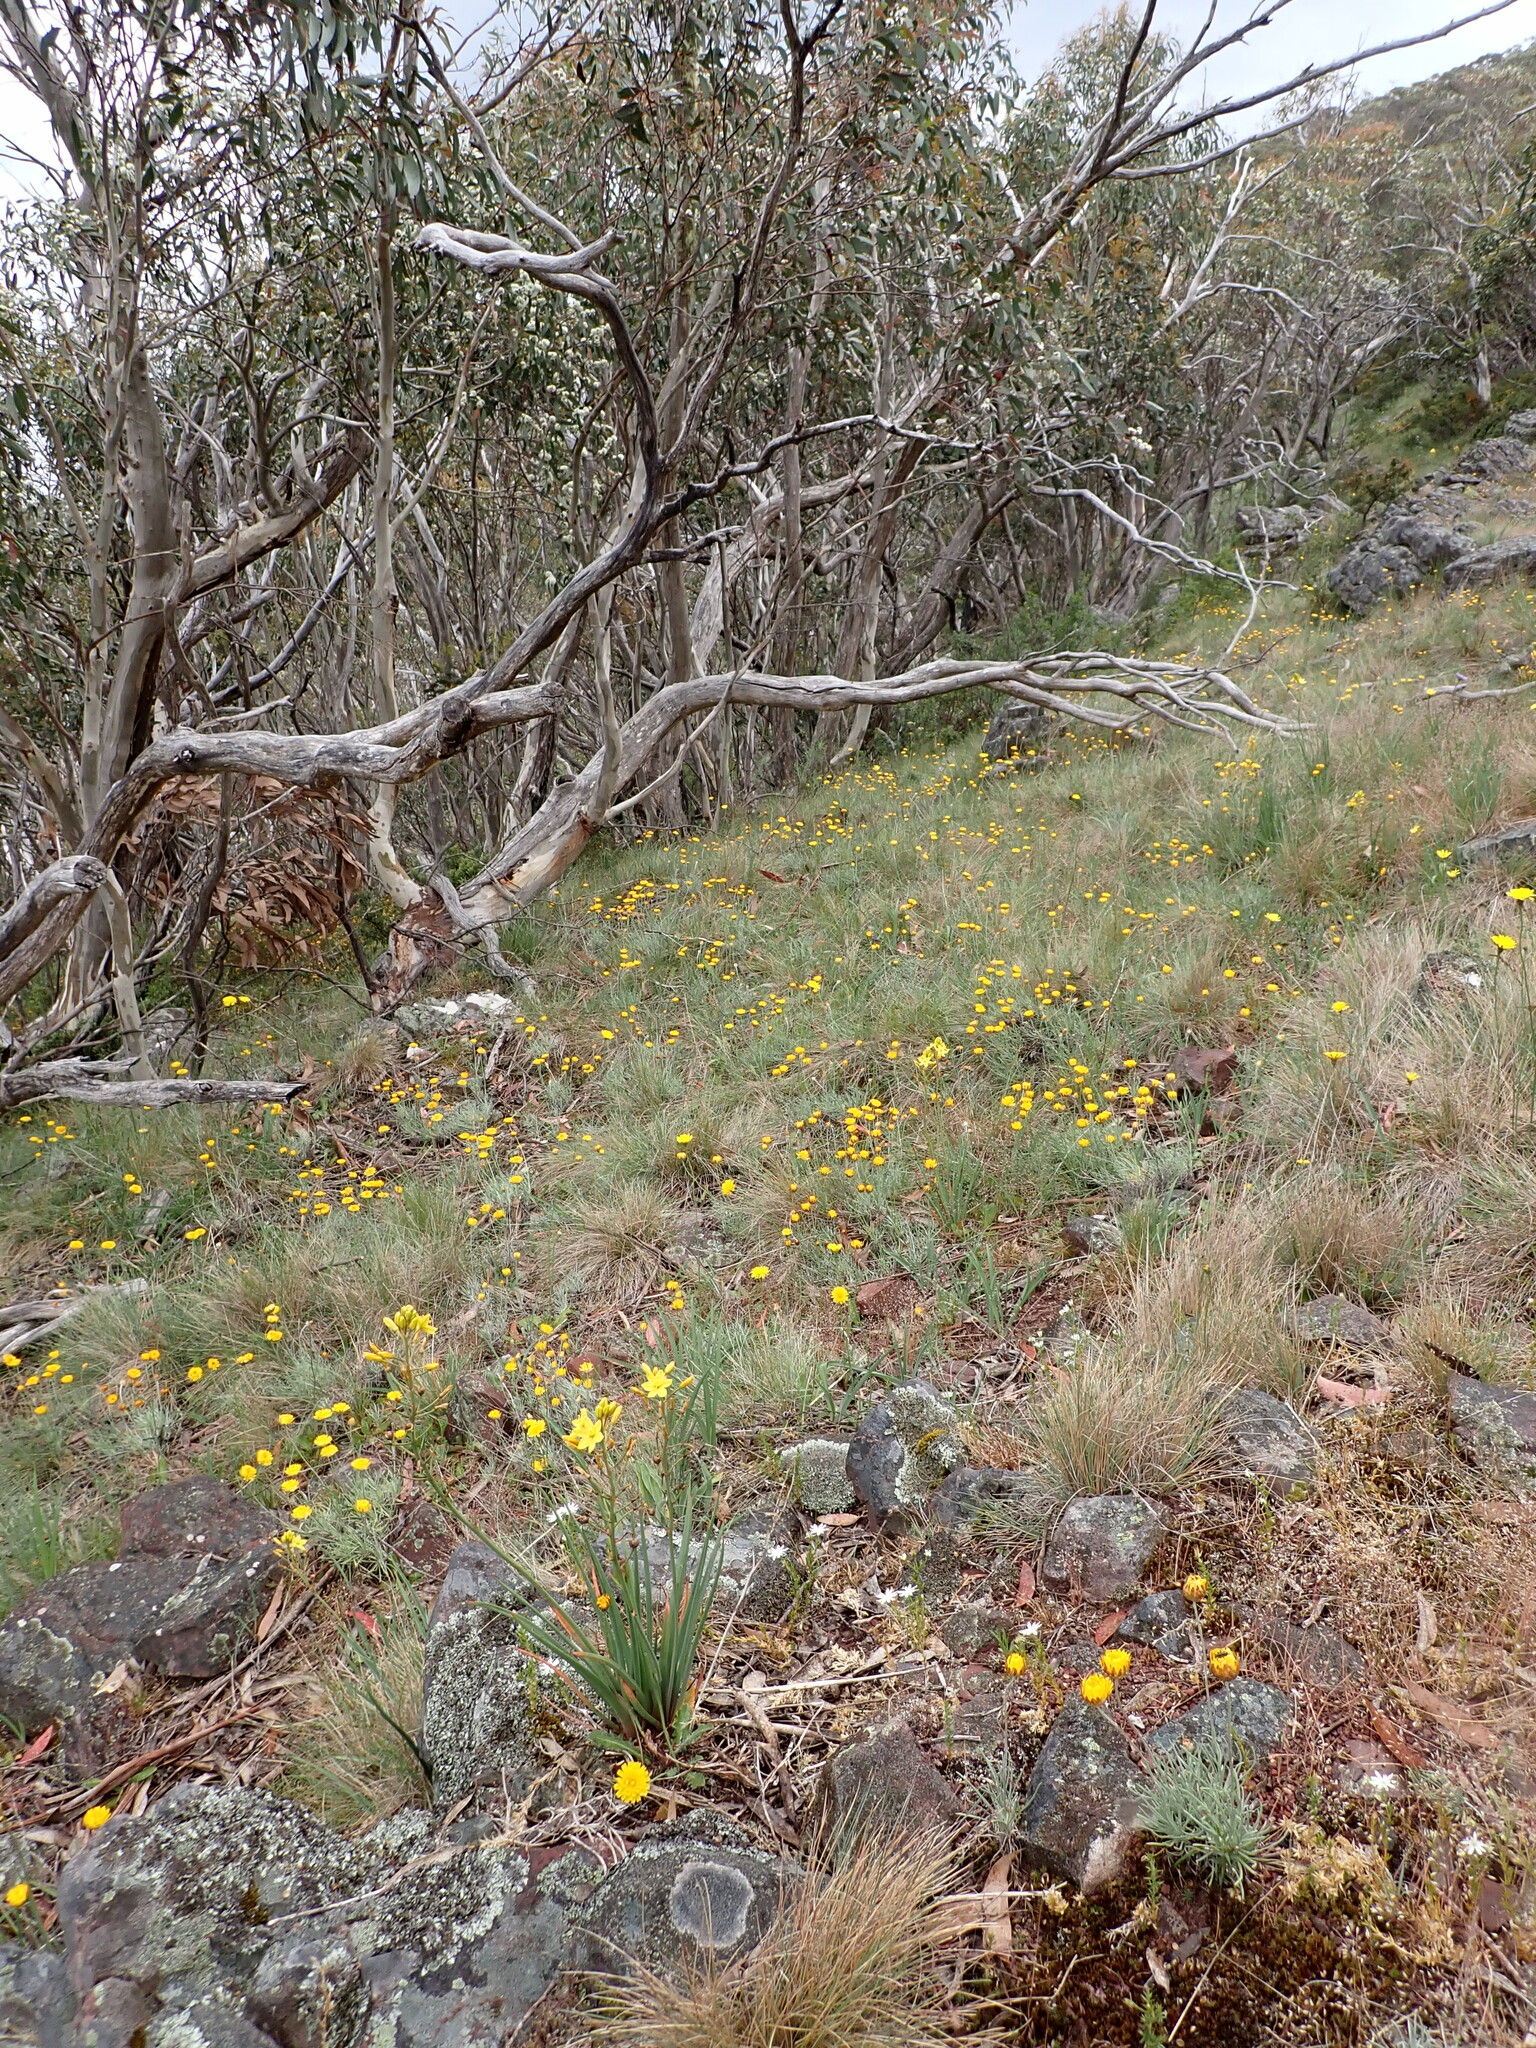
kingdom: Plantae
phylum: Tracheophyta
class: Magnoliopsida
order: Asterales
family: Asteraceae
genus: Leucochrysum
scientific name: Leucochrysum albicans
